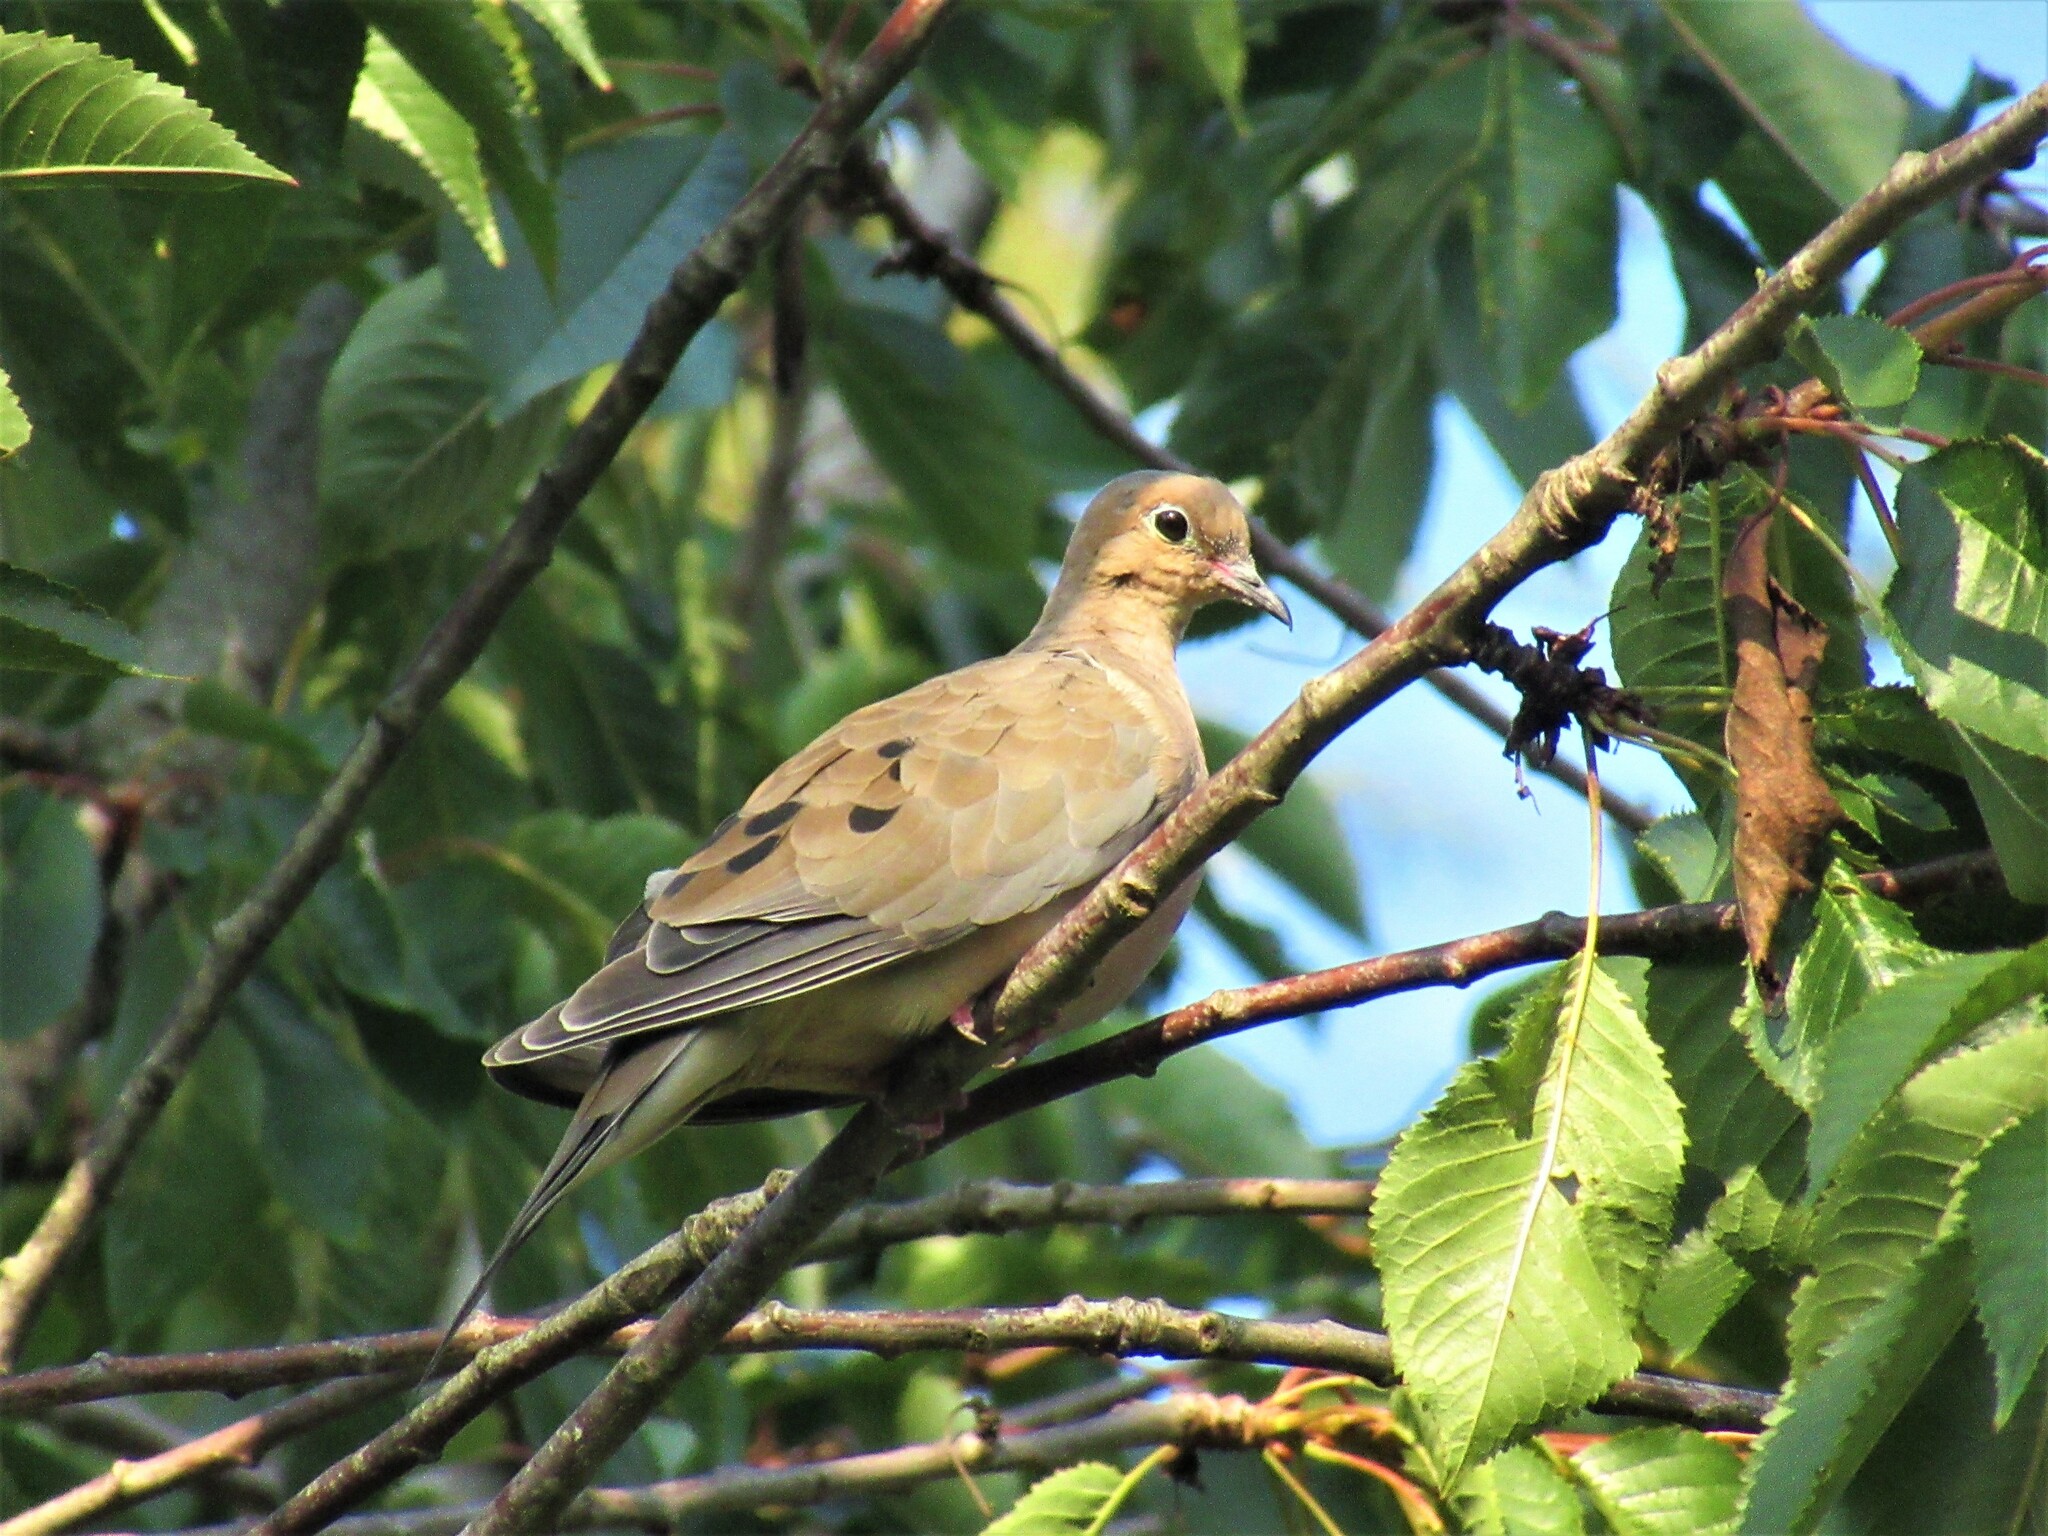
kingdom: Animalia
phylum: Chordata
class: Aves
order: Columbiformes
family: Columbidae
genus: Zenaida
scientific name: Zenaida macroura
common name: Mourning dove
